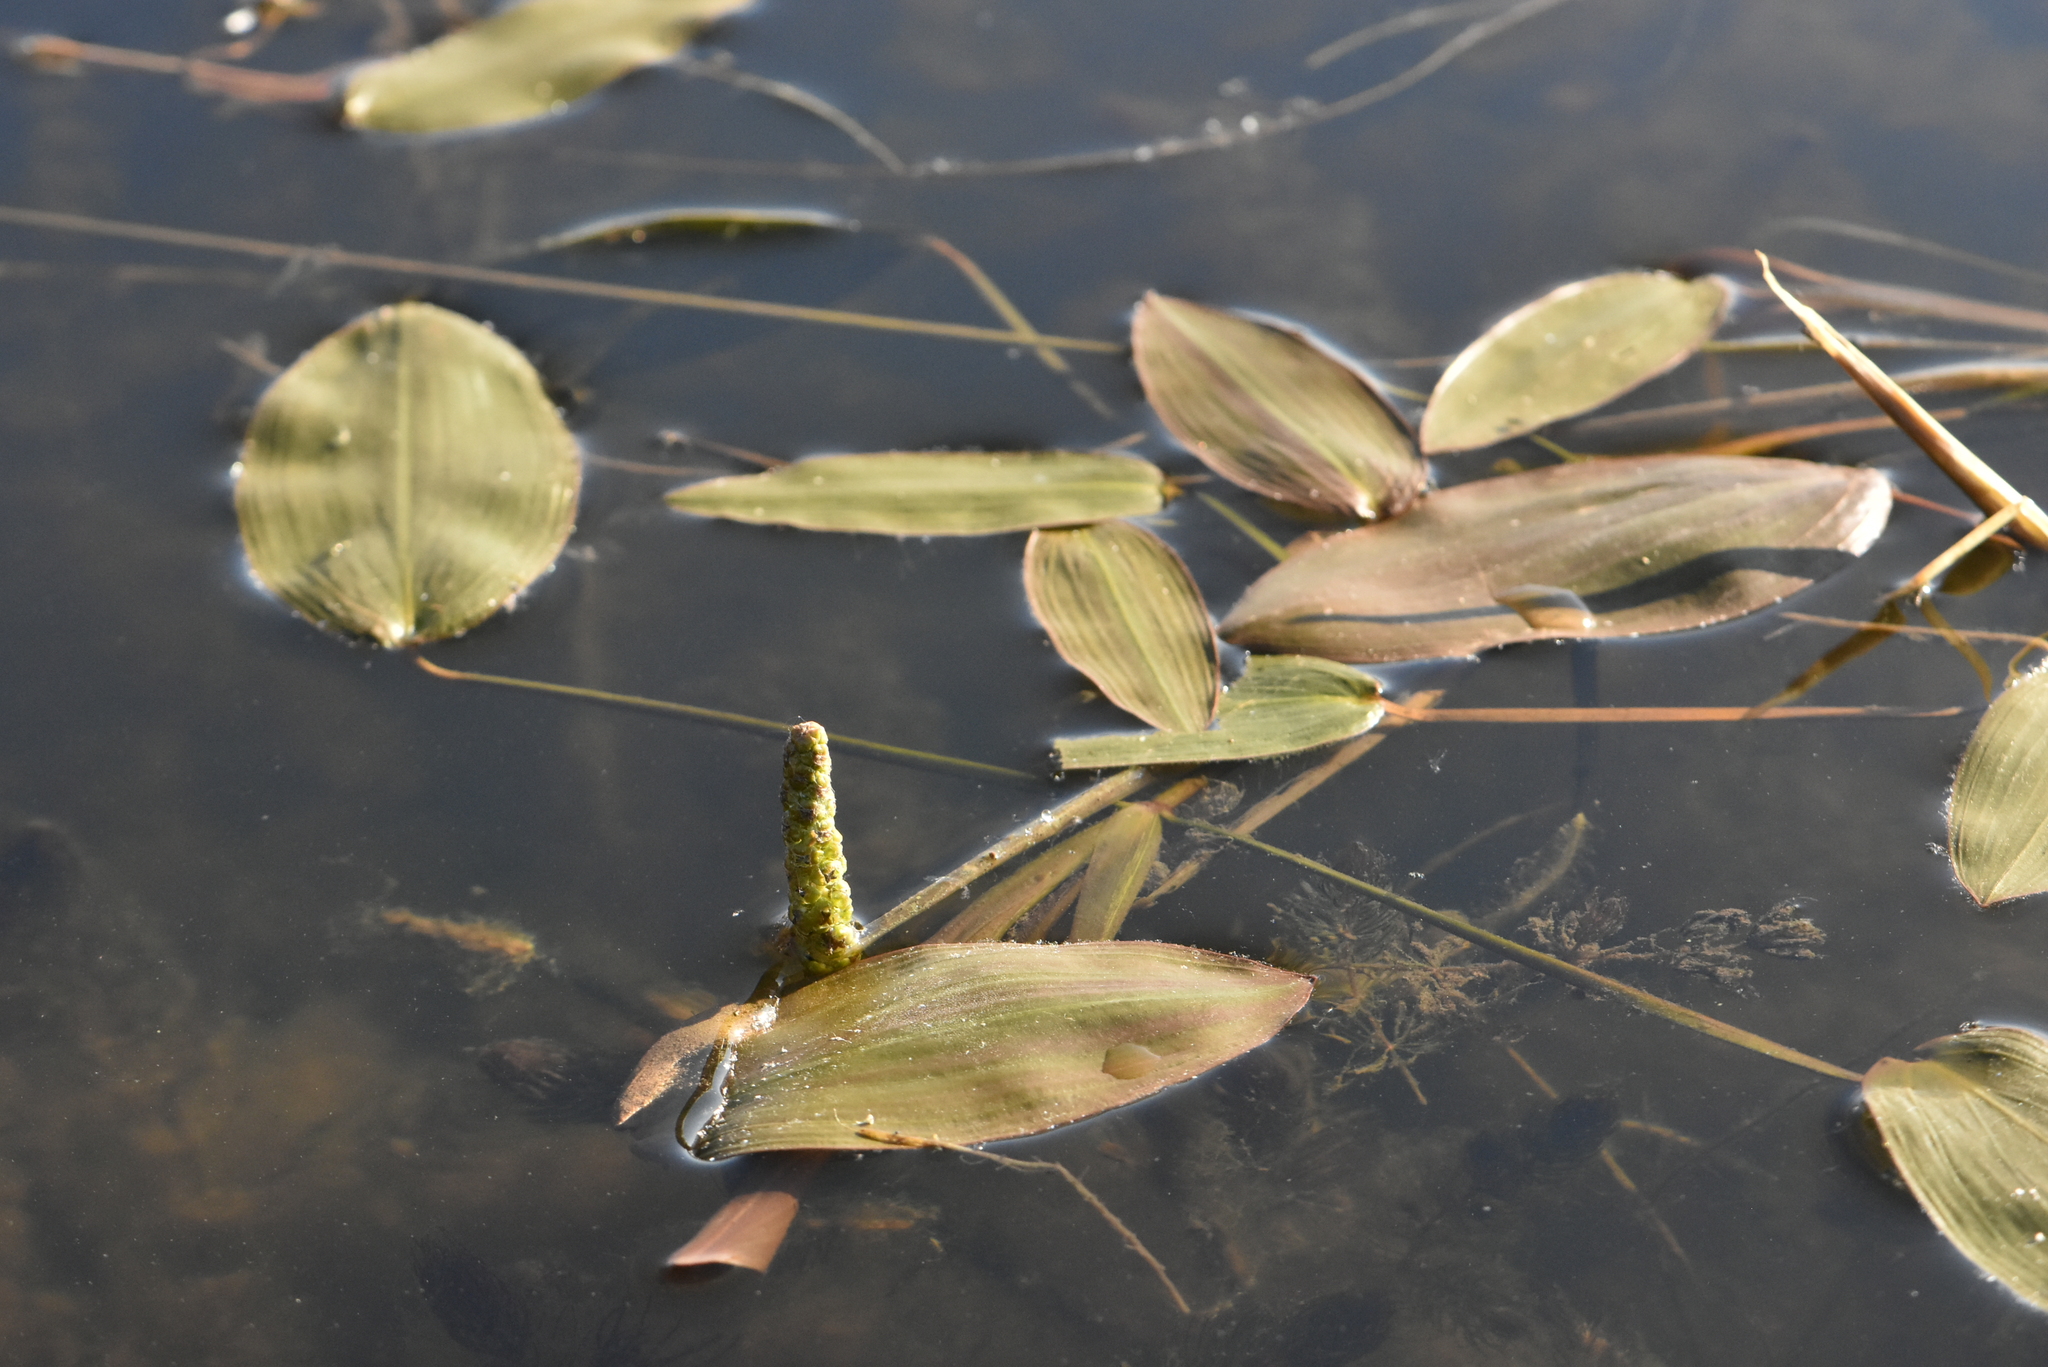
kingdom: Plantae
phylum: Tracheophyta
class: Liliopsida
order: Alismatales
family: Potamogetonaceae
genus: Potamogeton
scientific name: Potamogeton natans
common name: Broad-leaved pondweed
